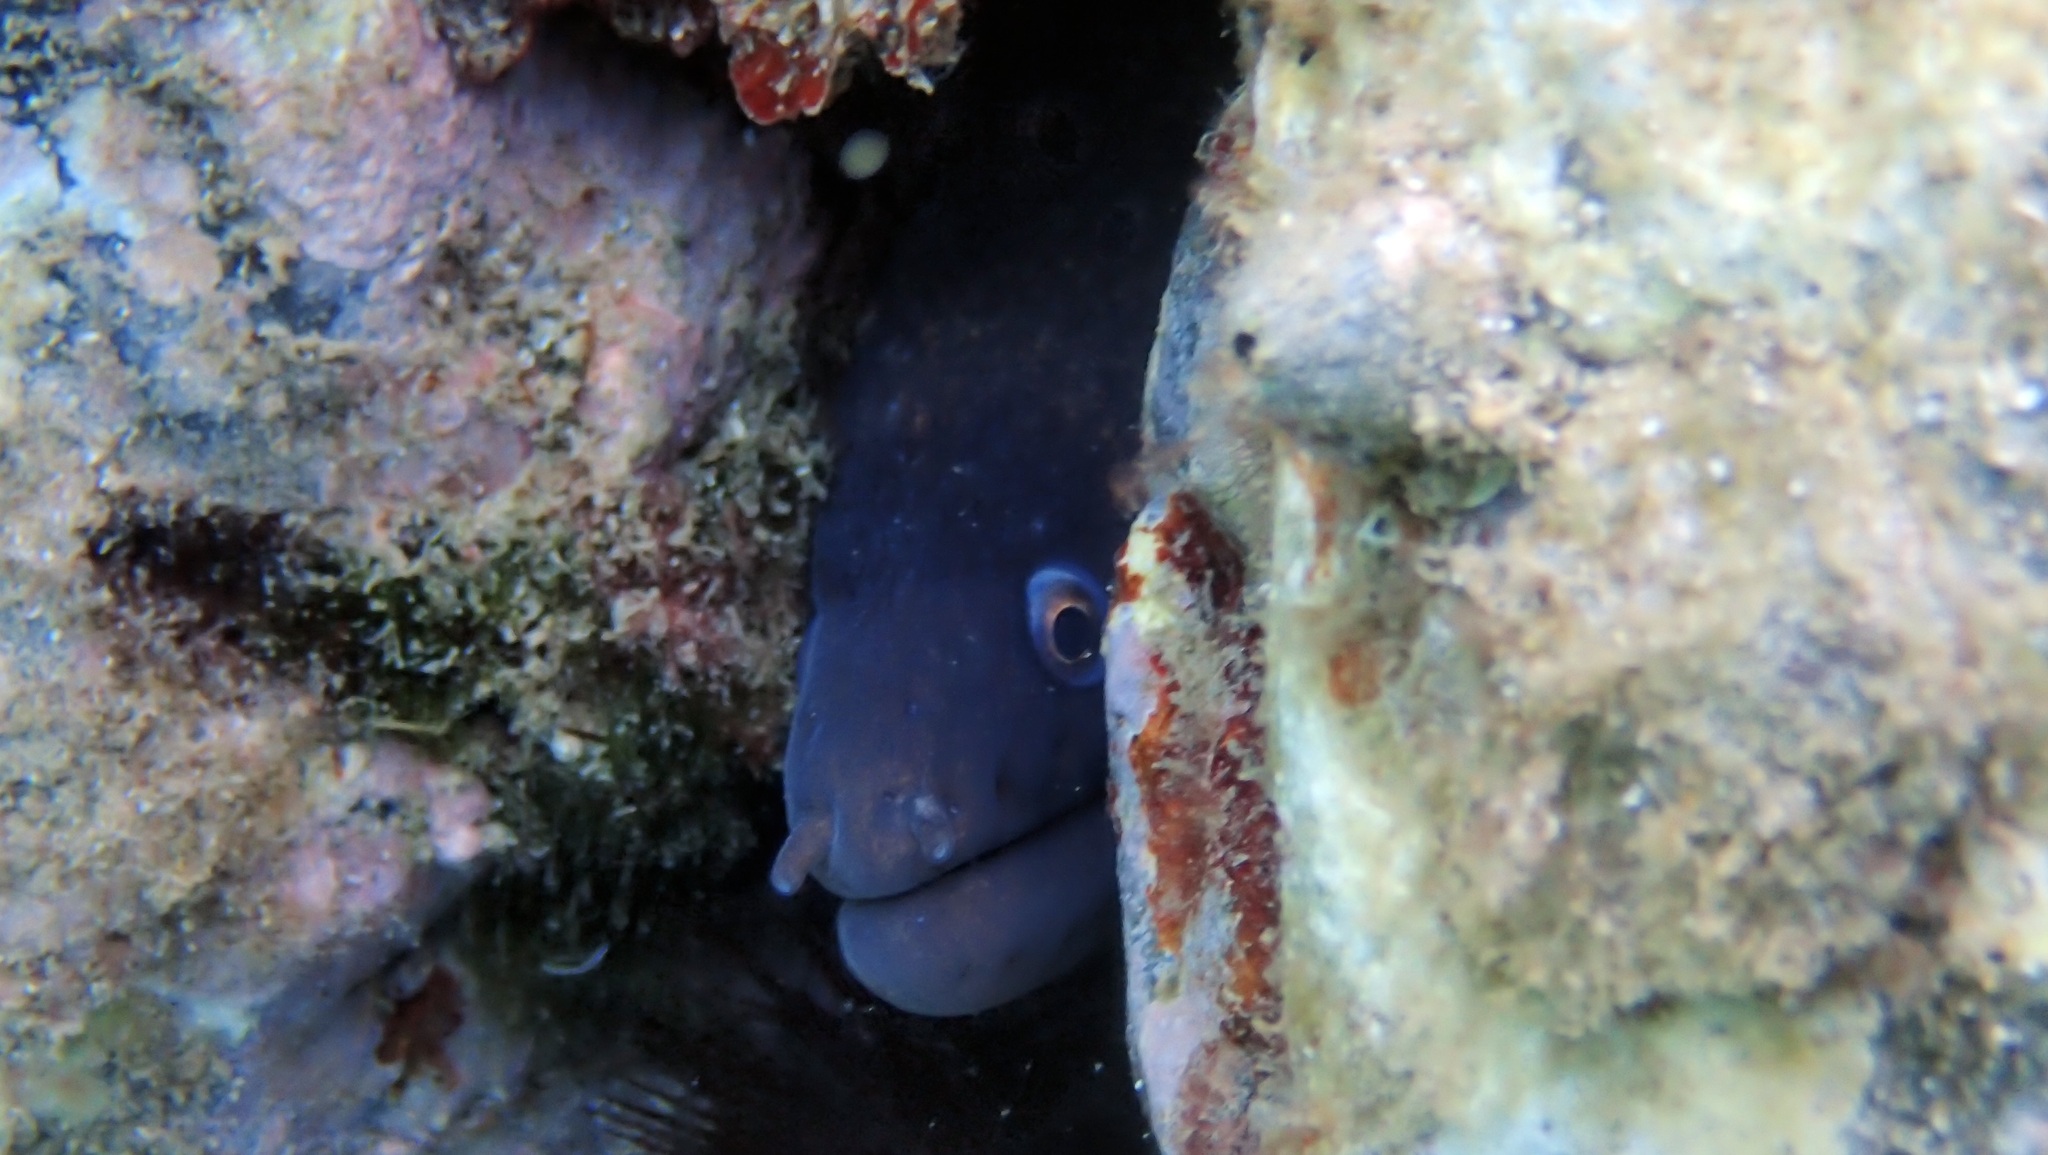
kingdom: Animalia
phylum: Chordata
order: Anguilliformes
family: Muraenidae
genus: Muraena
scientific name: Muraena helena
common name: Mediterranean moray
